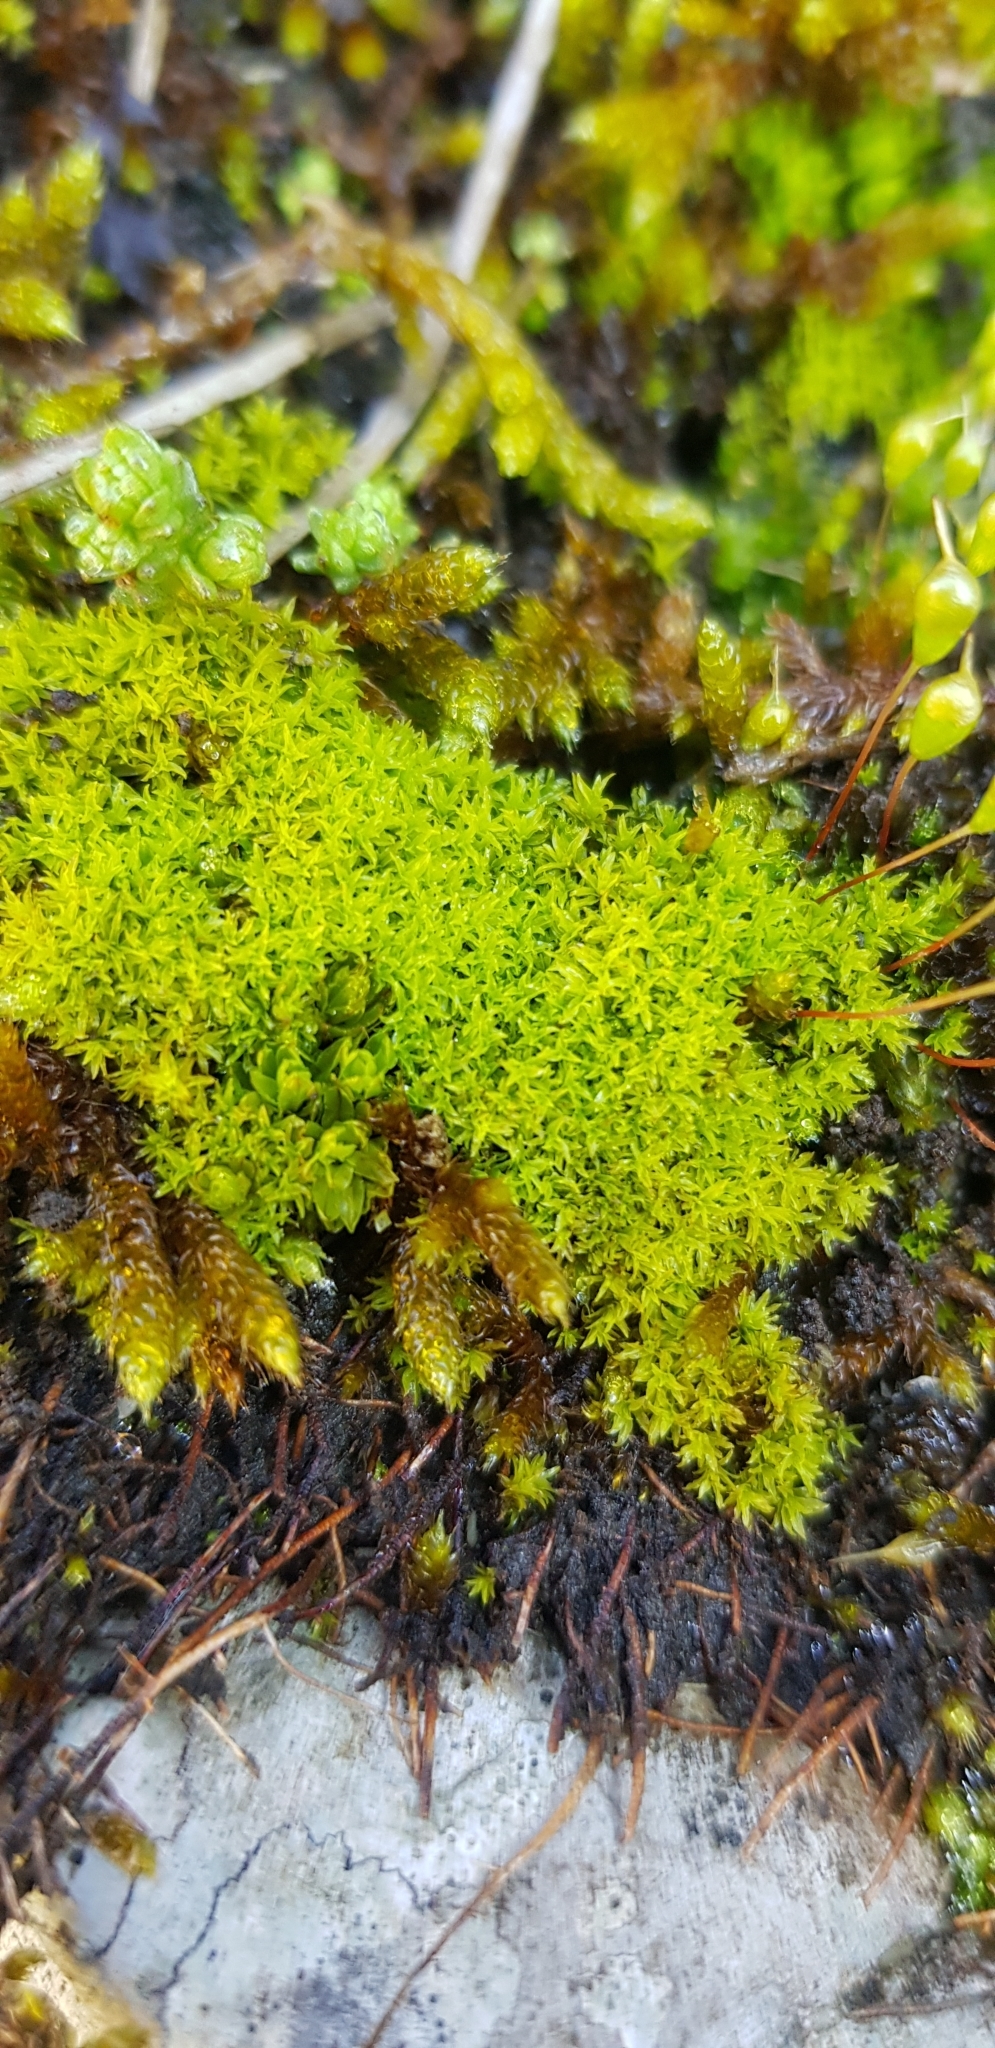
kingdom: Plantae
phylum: Bryophyta
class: Bryopsida
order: Pottiales
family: Pottiaceae
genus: Streblotrichum
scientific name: Streblotrichum commutatum
